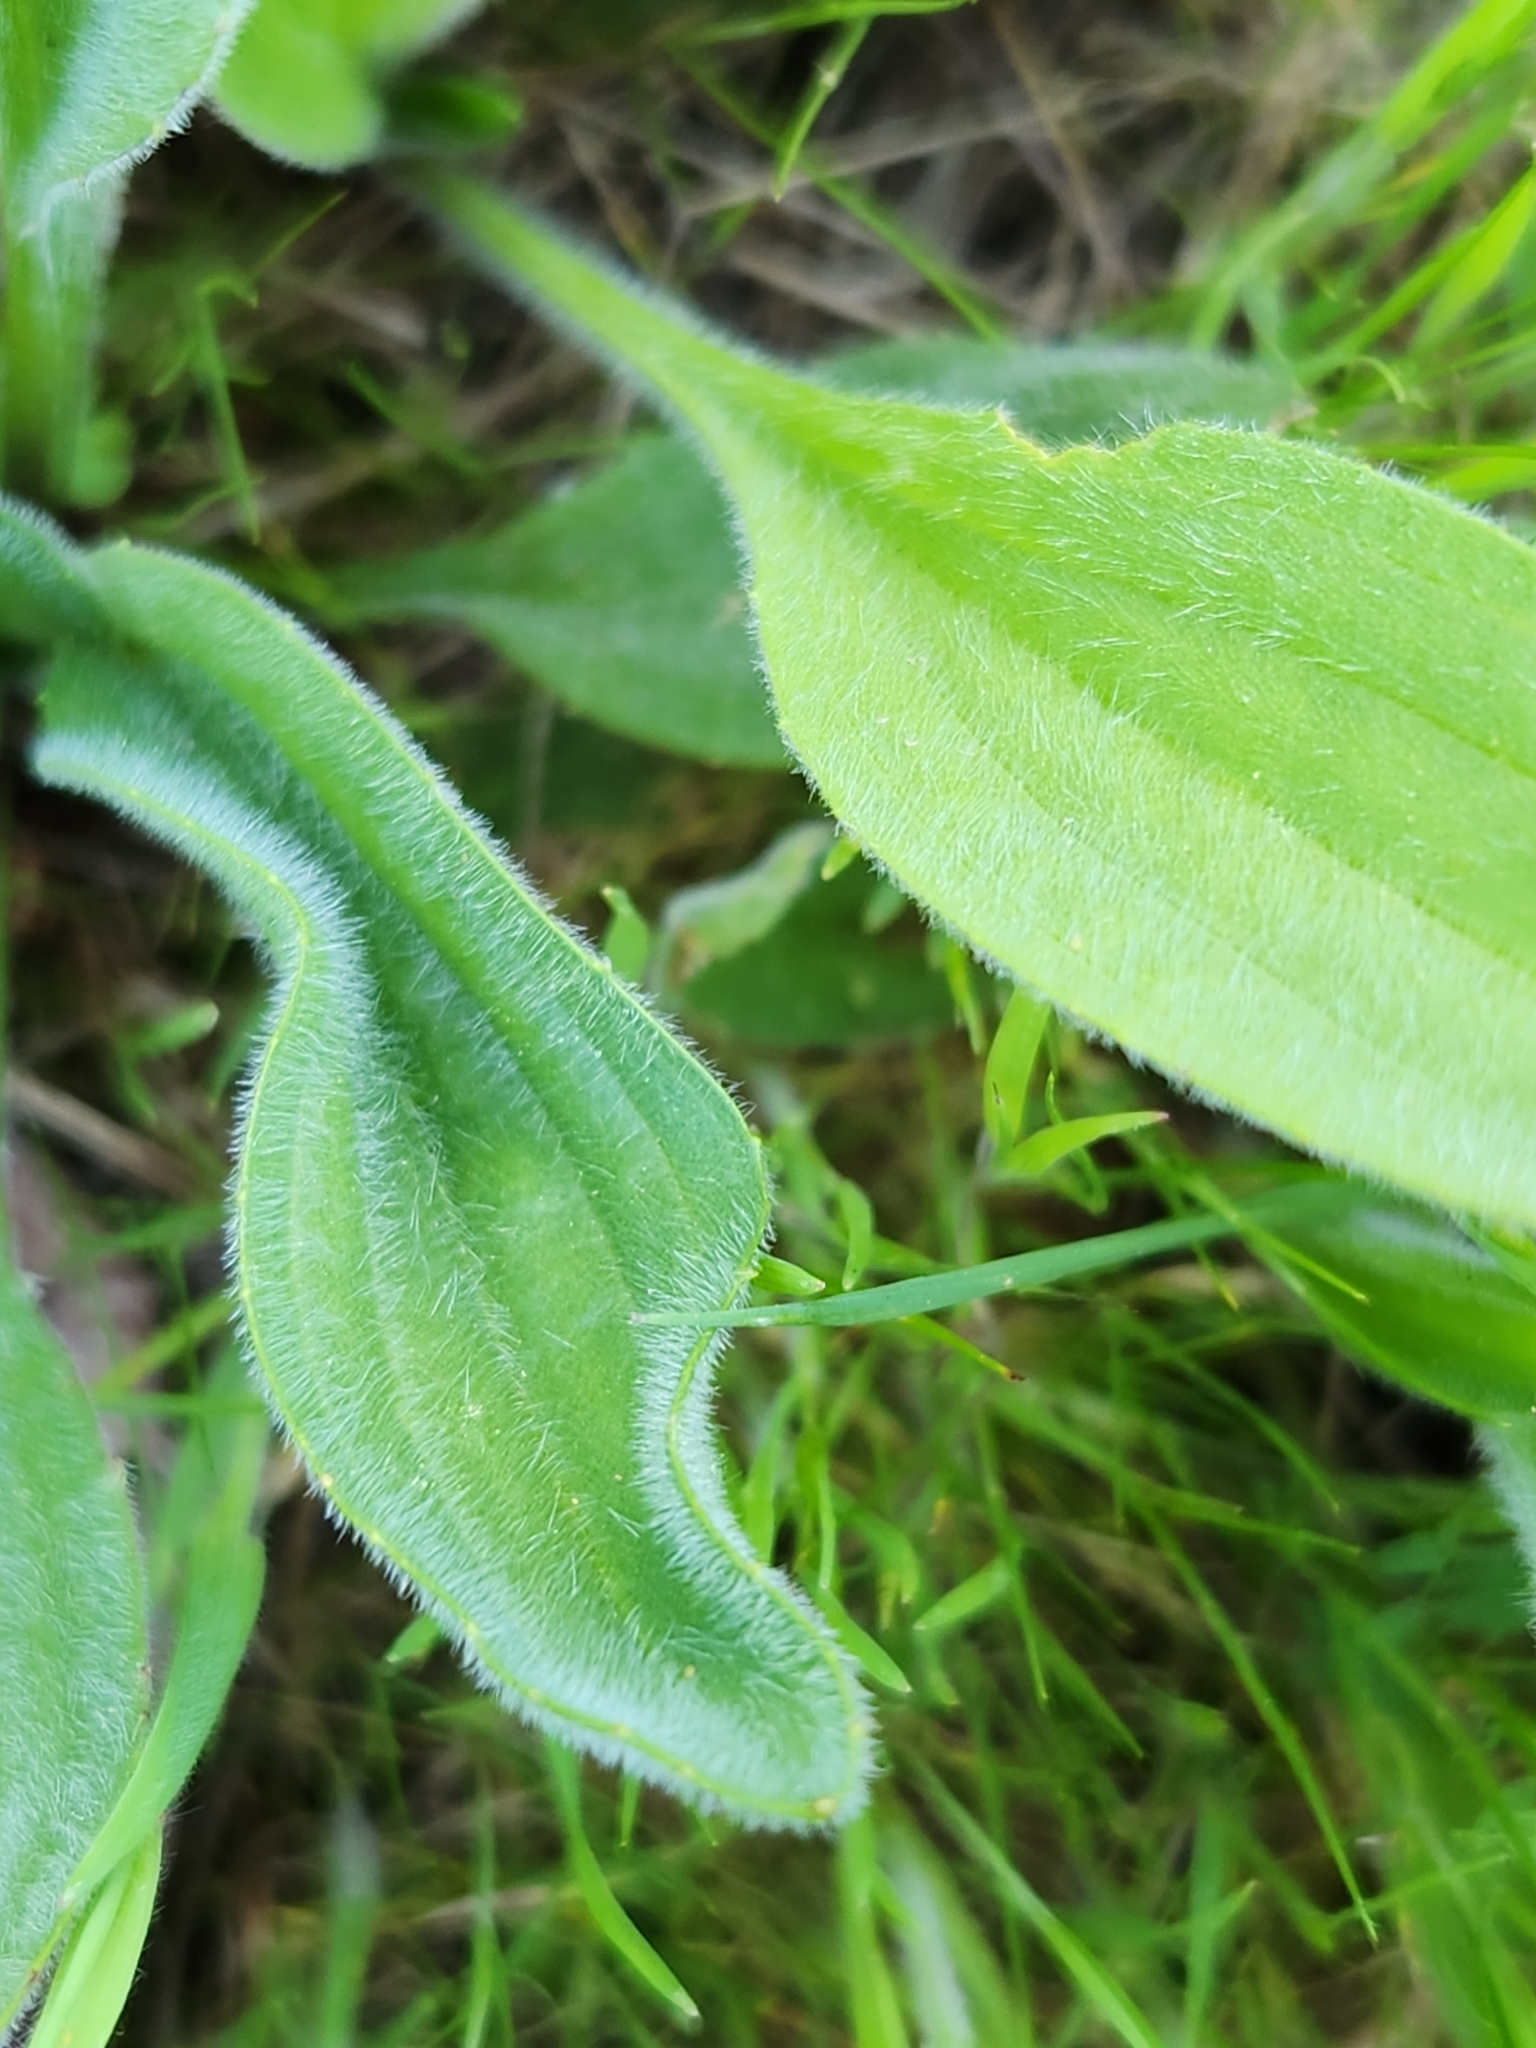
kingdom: Plantae
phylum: Tracheophyta
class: Magnoliopsida
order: Lamiales
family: Plantaginaceae
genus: Plantago
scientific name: Plantago lanceolata
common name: Ribwort plantain
